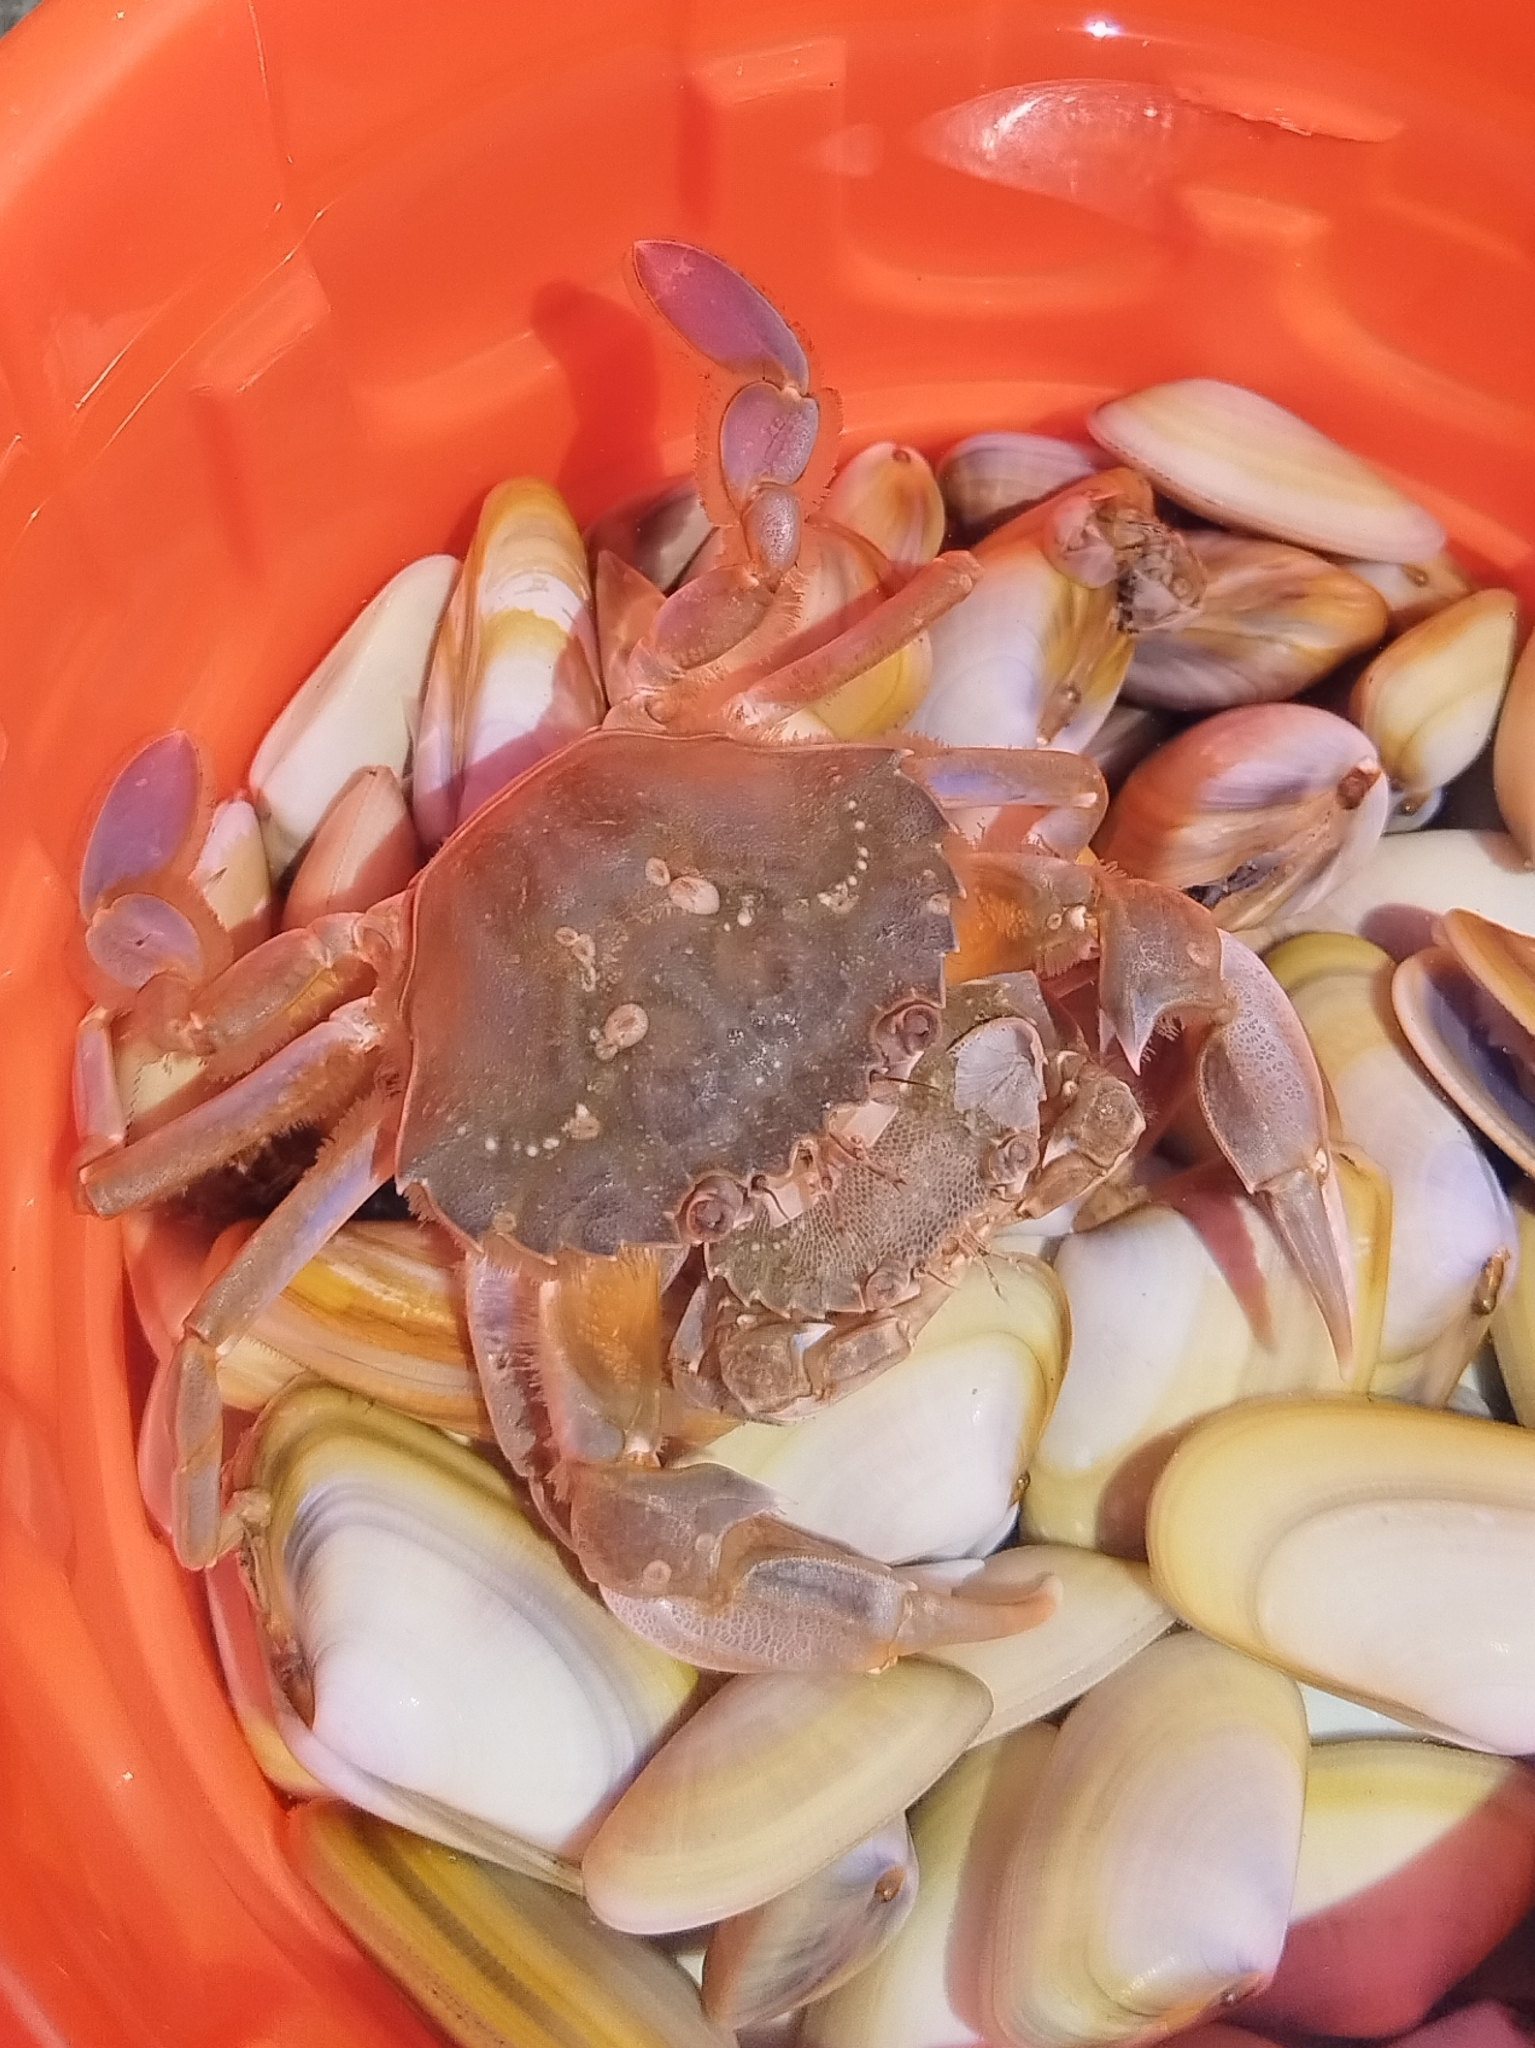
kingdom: Animalia
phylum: Arthropoda
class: Malacostraca
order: Decapoda
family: Polybiidae
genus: Liocarcinus
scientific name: Liocarcinus vernalis
